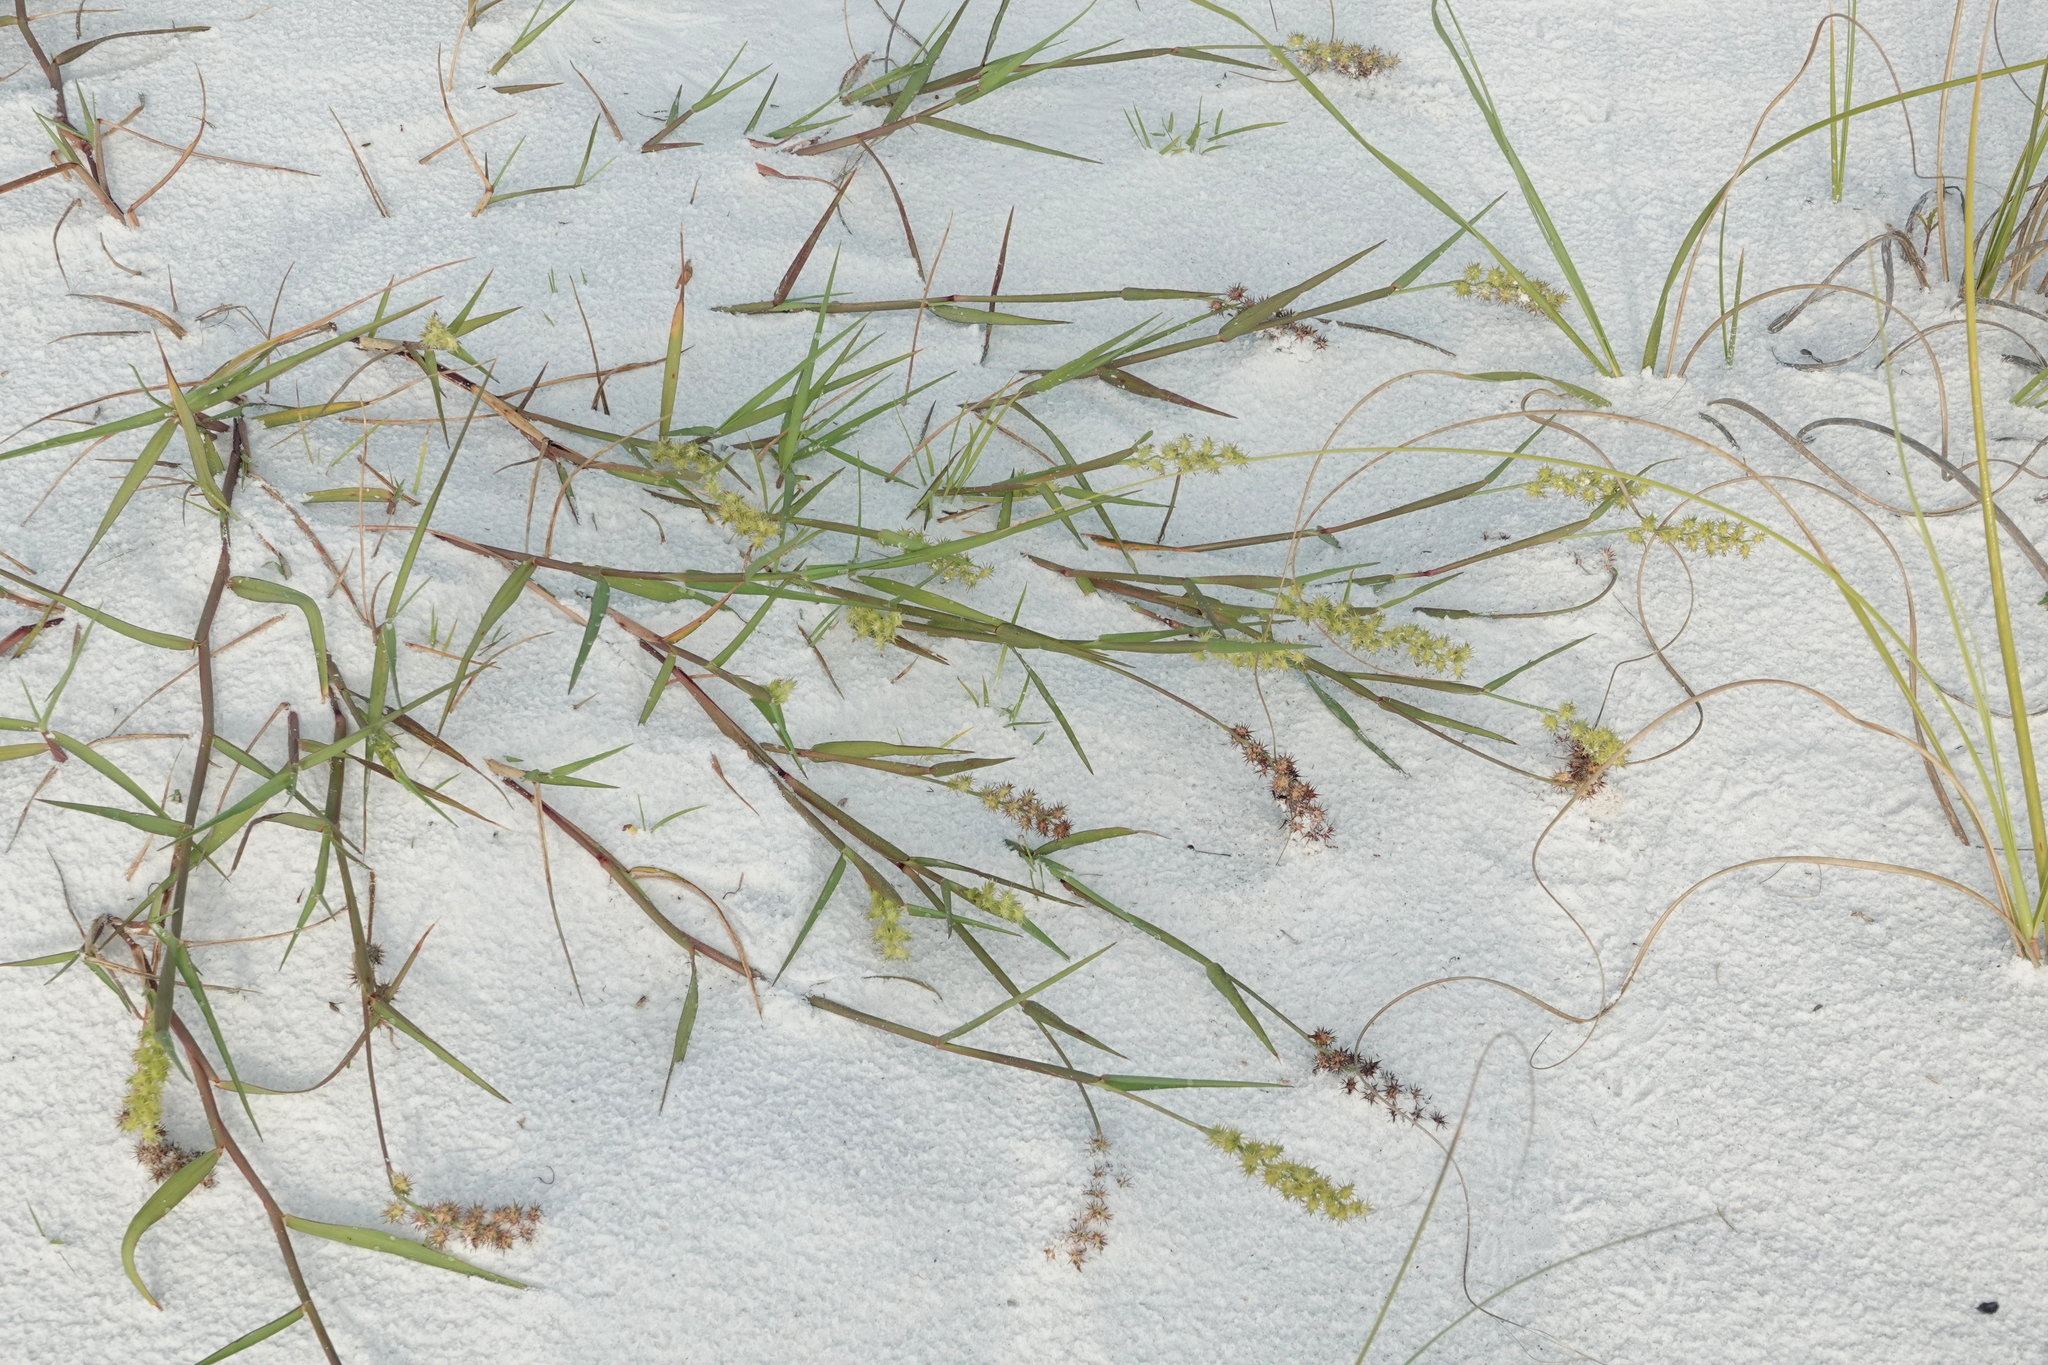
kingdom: Plantae
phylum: Tracheophyta
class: Liliopsida
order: Poales
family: Poaceae
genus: Cenchrus
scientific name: Cenchrus spinifex
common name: Coast sandbur
